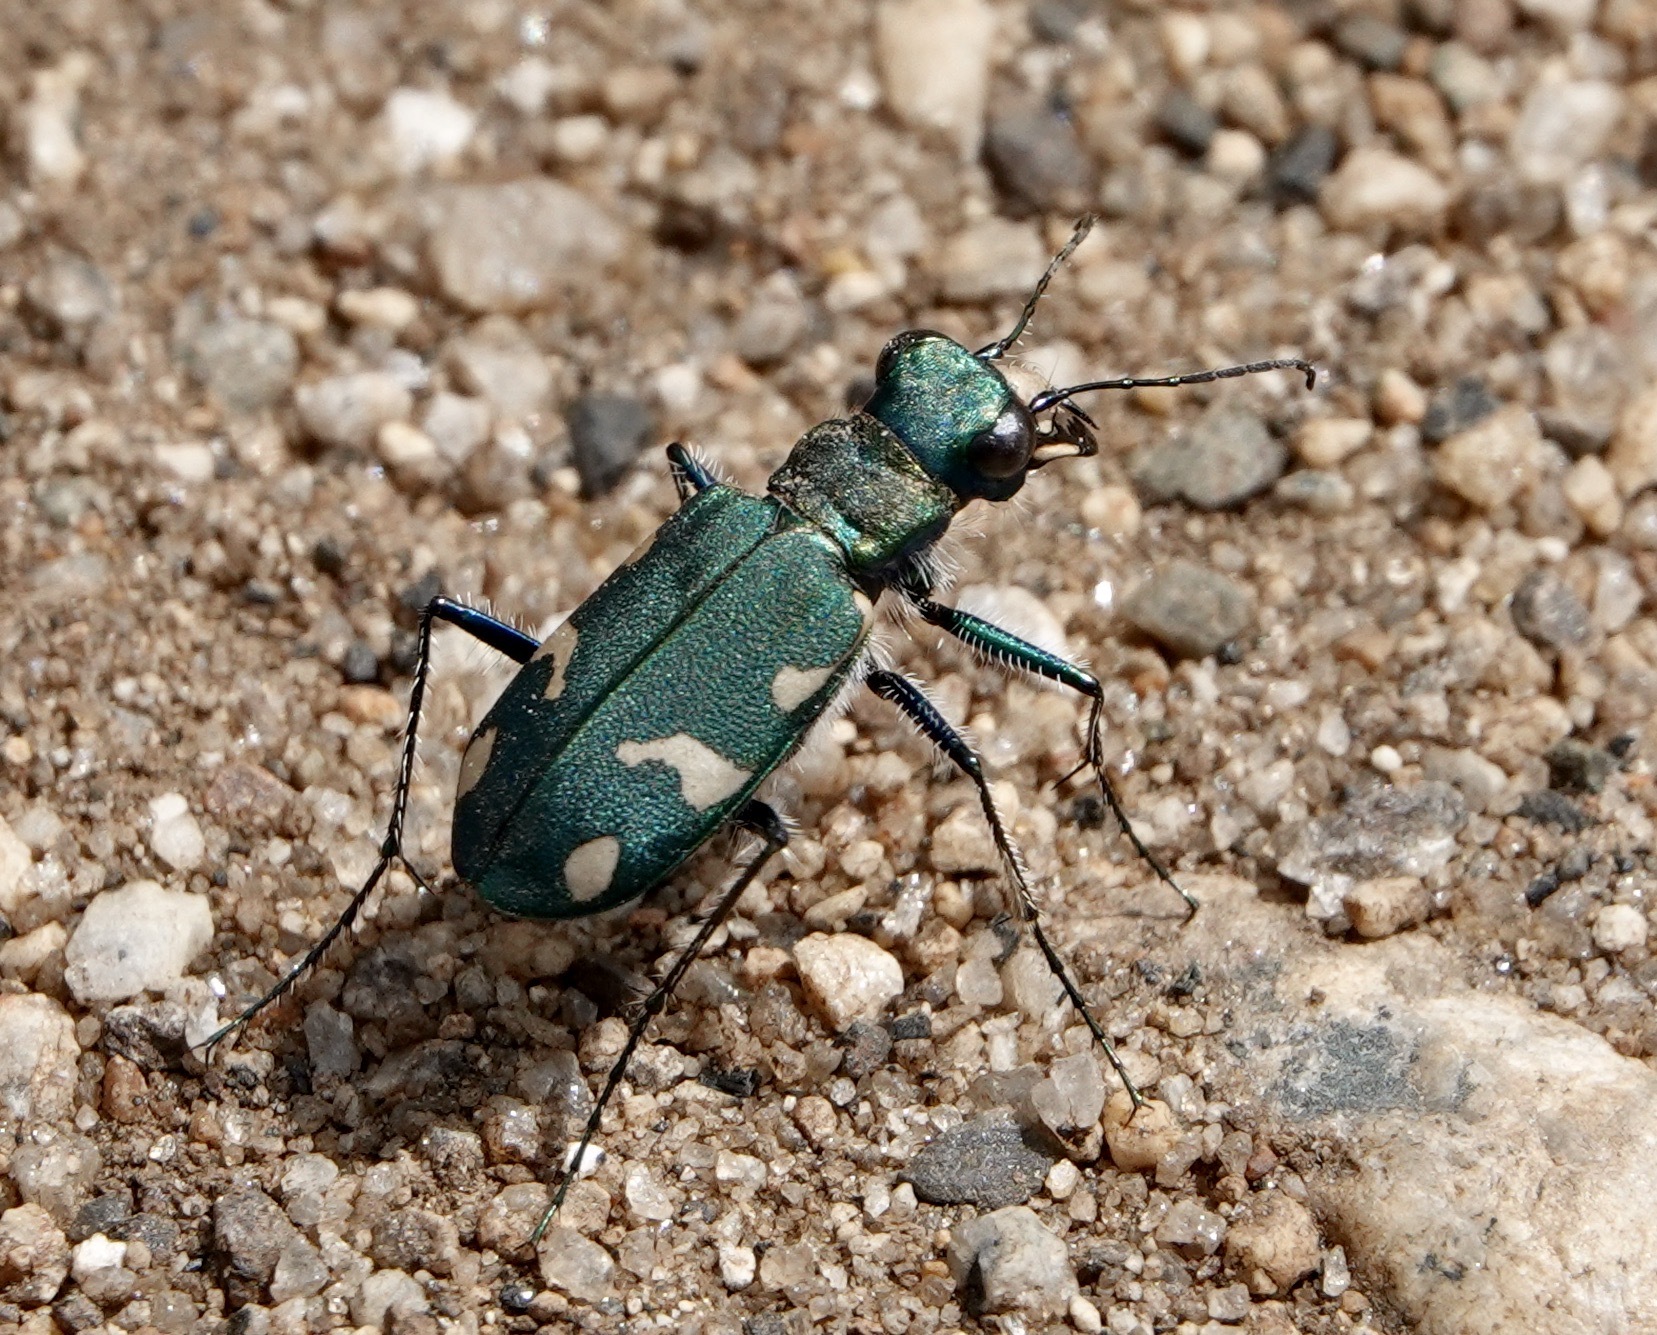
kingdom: Animalia
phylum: Arthropoda
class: Insecta
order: Coleoptera
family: Carabidae
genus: Cicindela
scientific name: Cicindela longilabris
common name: Boreal long-lipped tiger beetle
